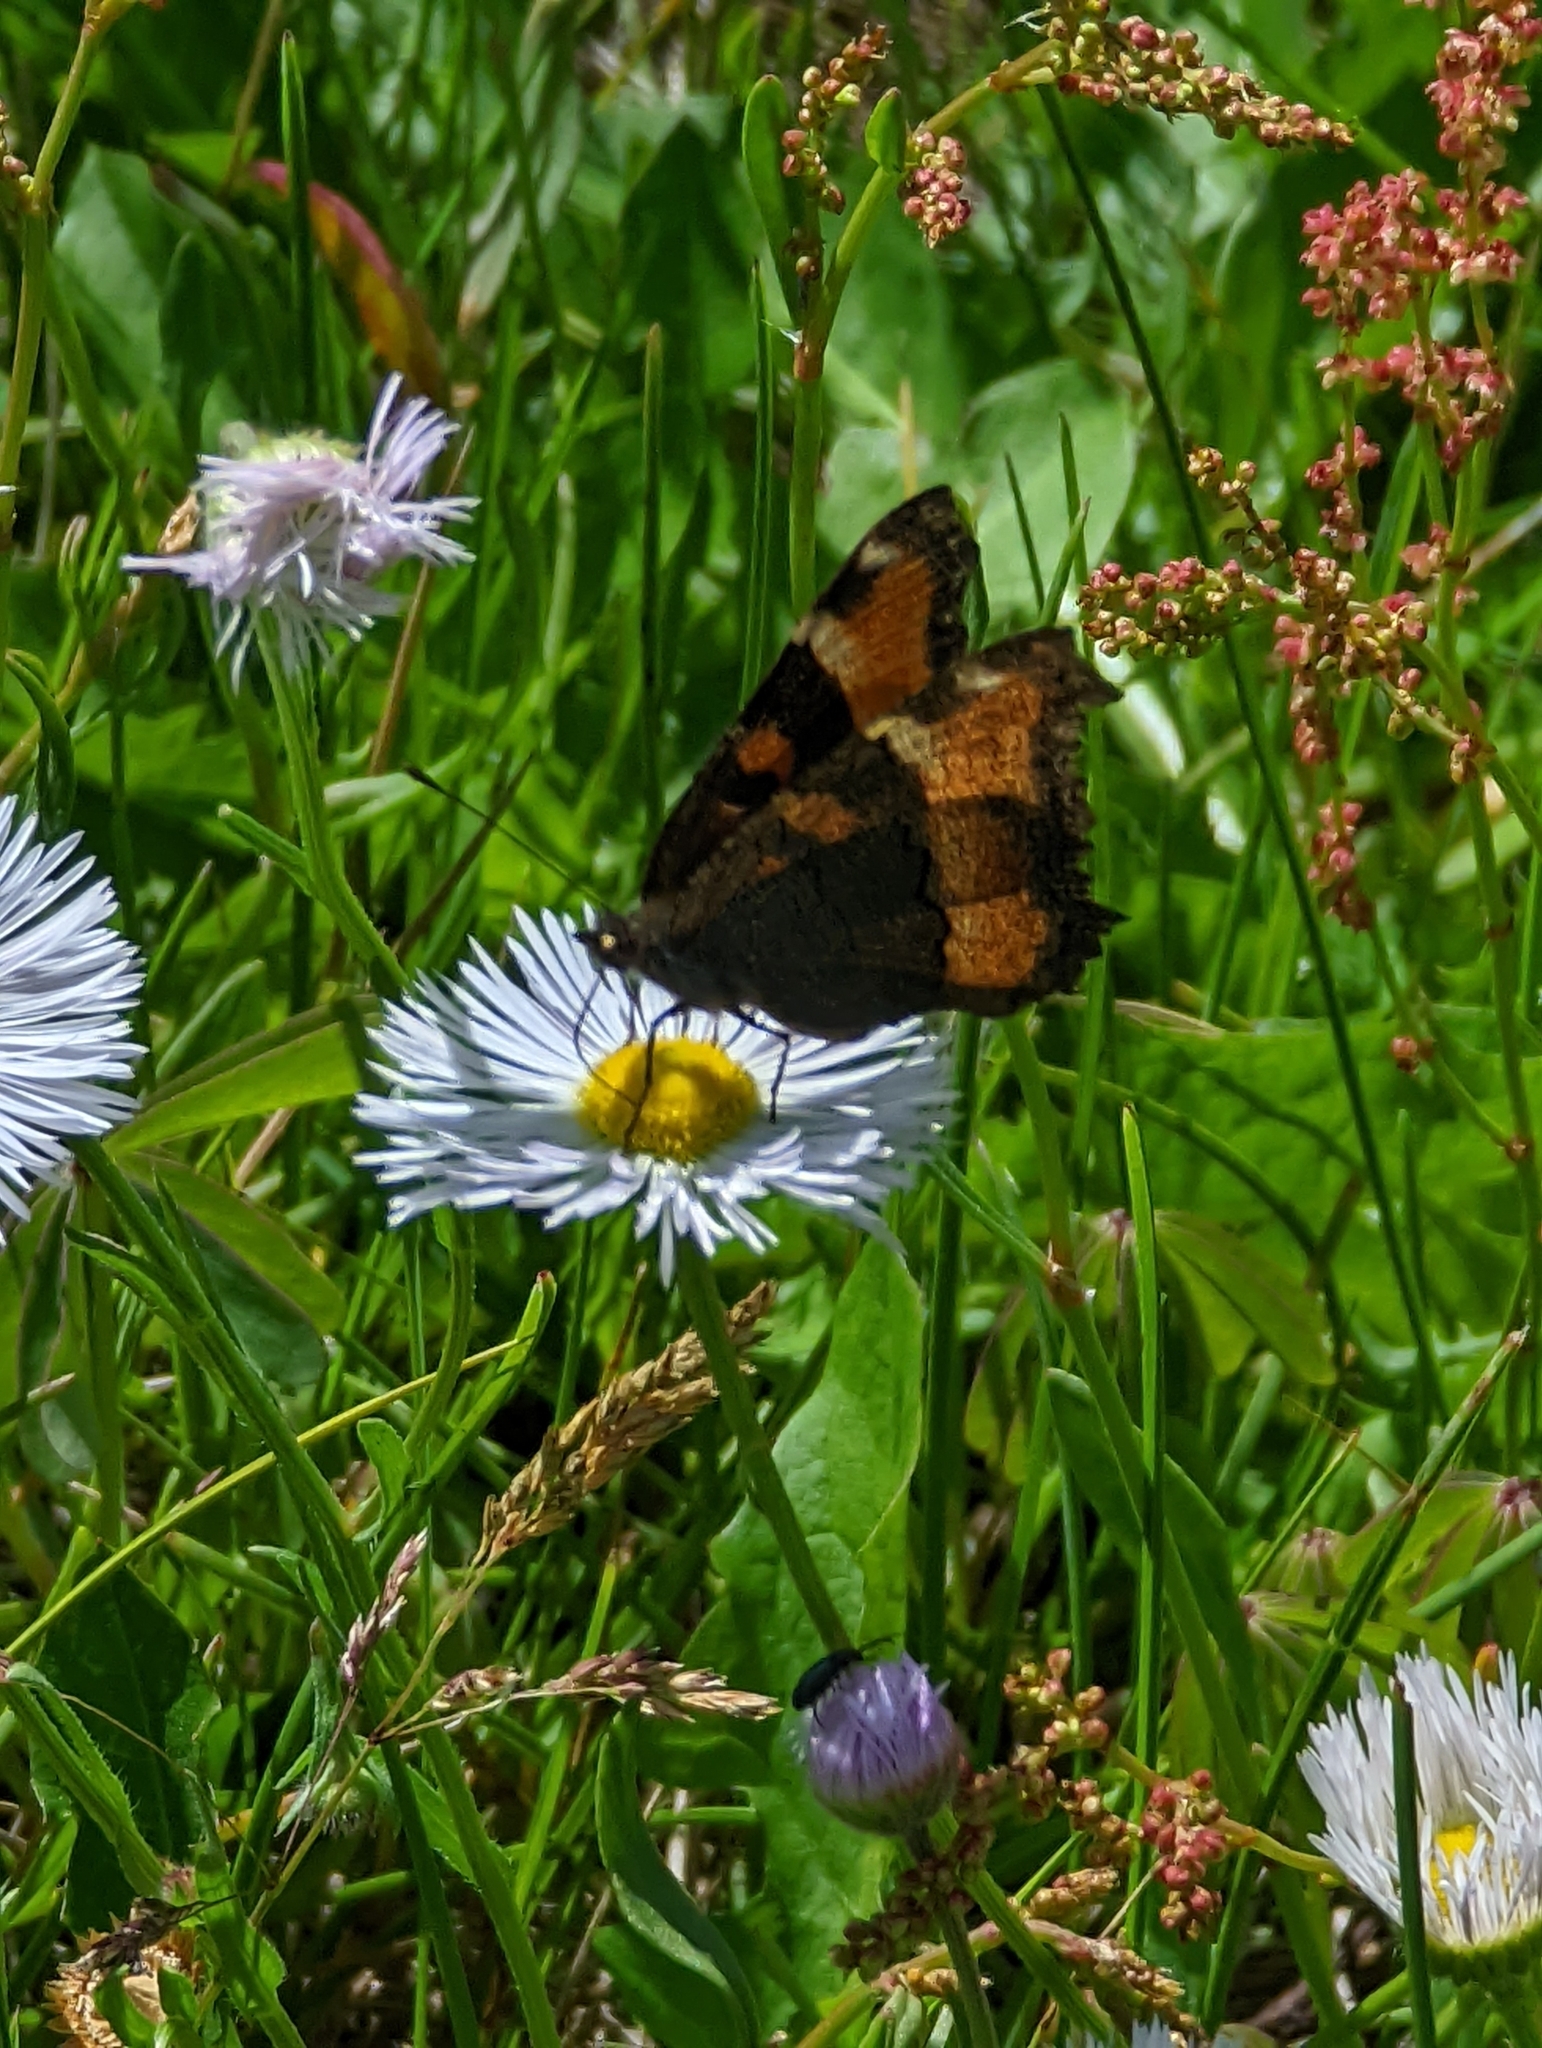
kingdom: Animalia
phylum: Arthropoda
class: Insecta
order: Lepidoptera
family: Nymphalidae
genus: Aglais
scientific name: Aglais milberti
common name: Milbert's tortoiseshell
